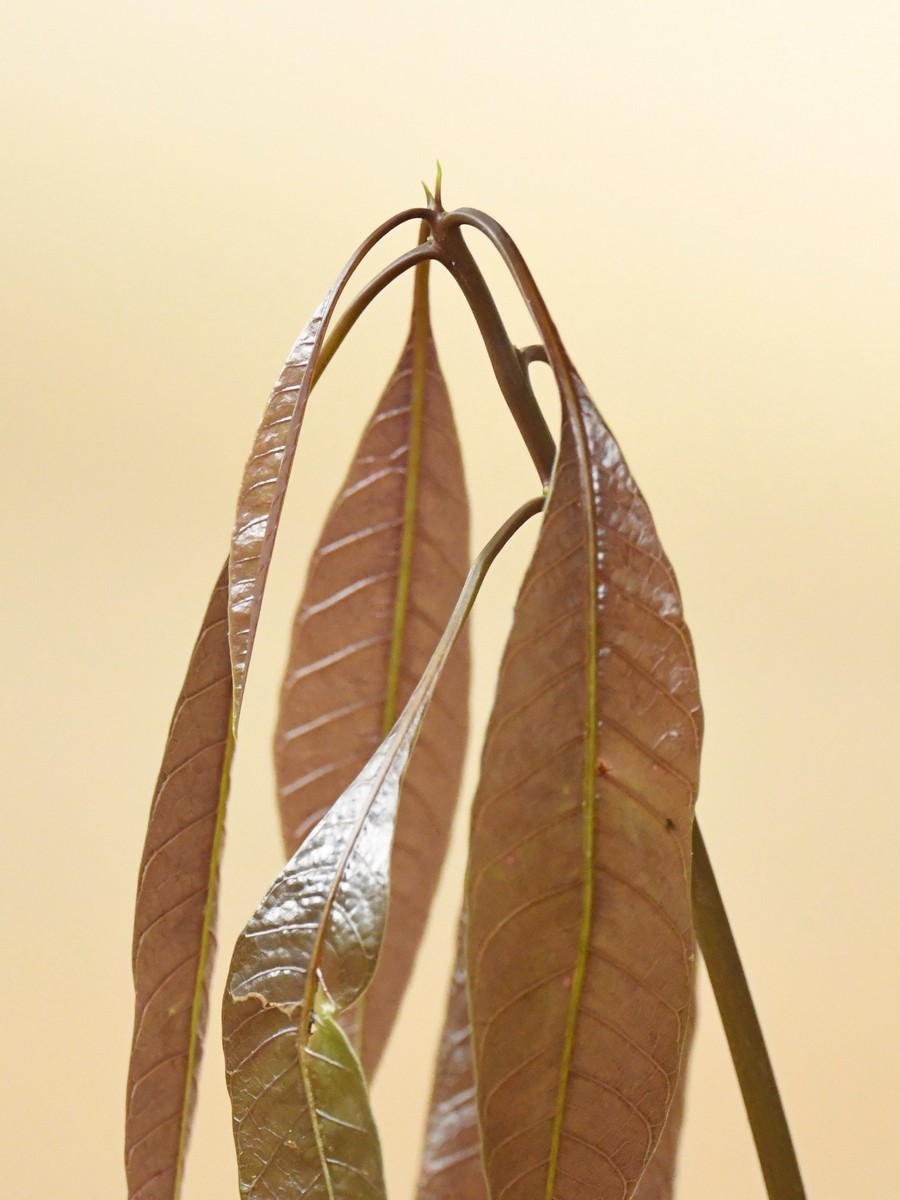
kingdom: Plantae
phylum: Tracheophyta
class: Magnoliopsida
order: Sapindales
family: Anacardiaceae
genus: Mangifera
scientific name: Mangifera indica
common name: Mango
